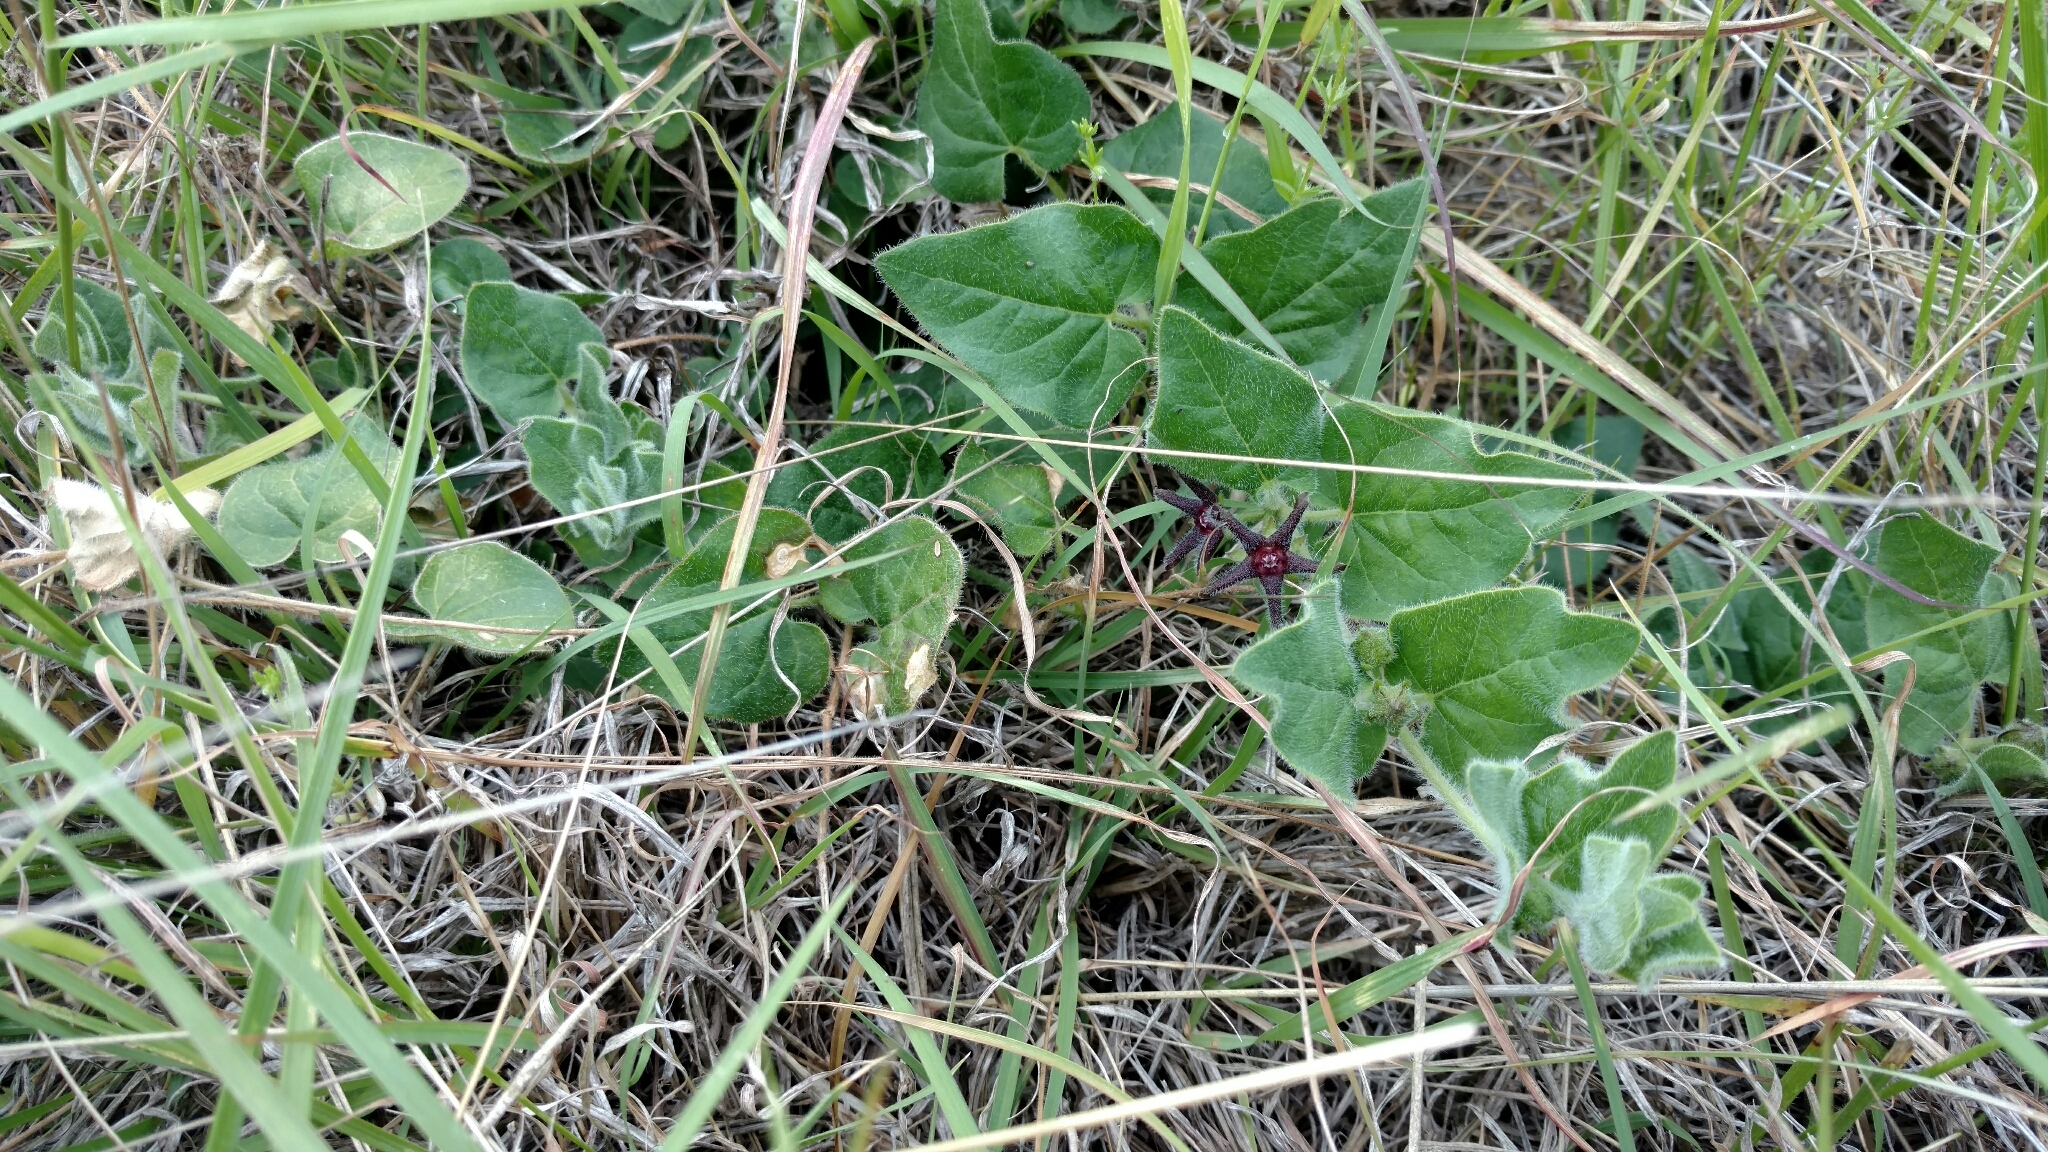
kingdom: Plantae
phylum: Tracheophyta
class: Magnoliopsida
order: Gentianales
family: Apocynaceae
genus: Chthamalia
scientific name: Chthamalia biflora
